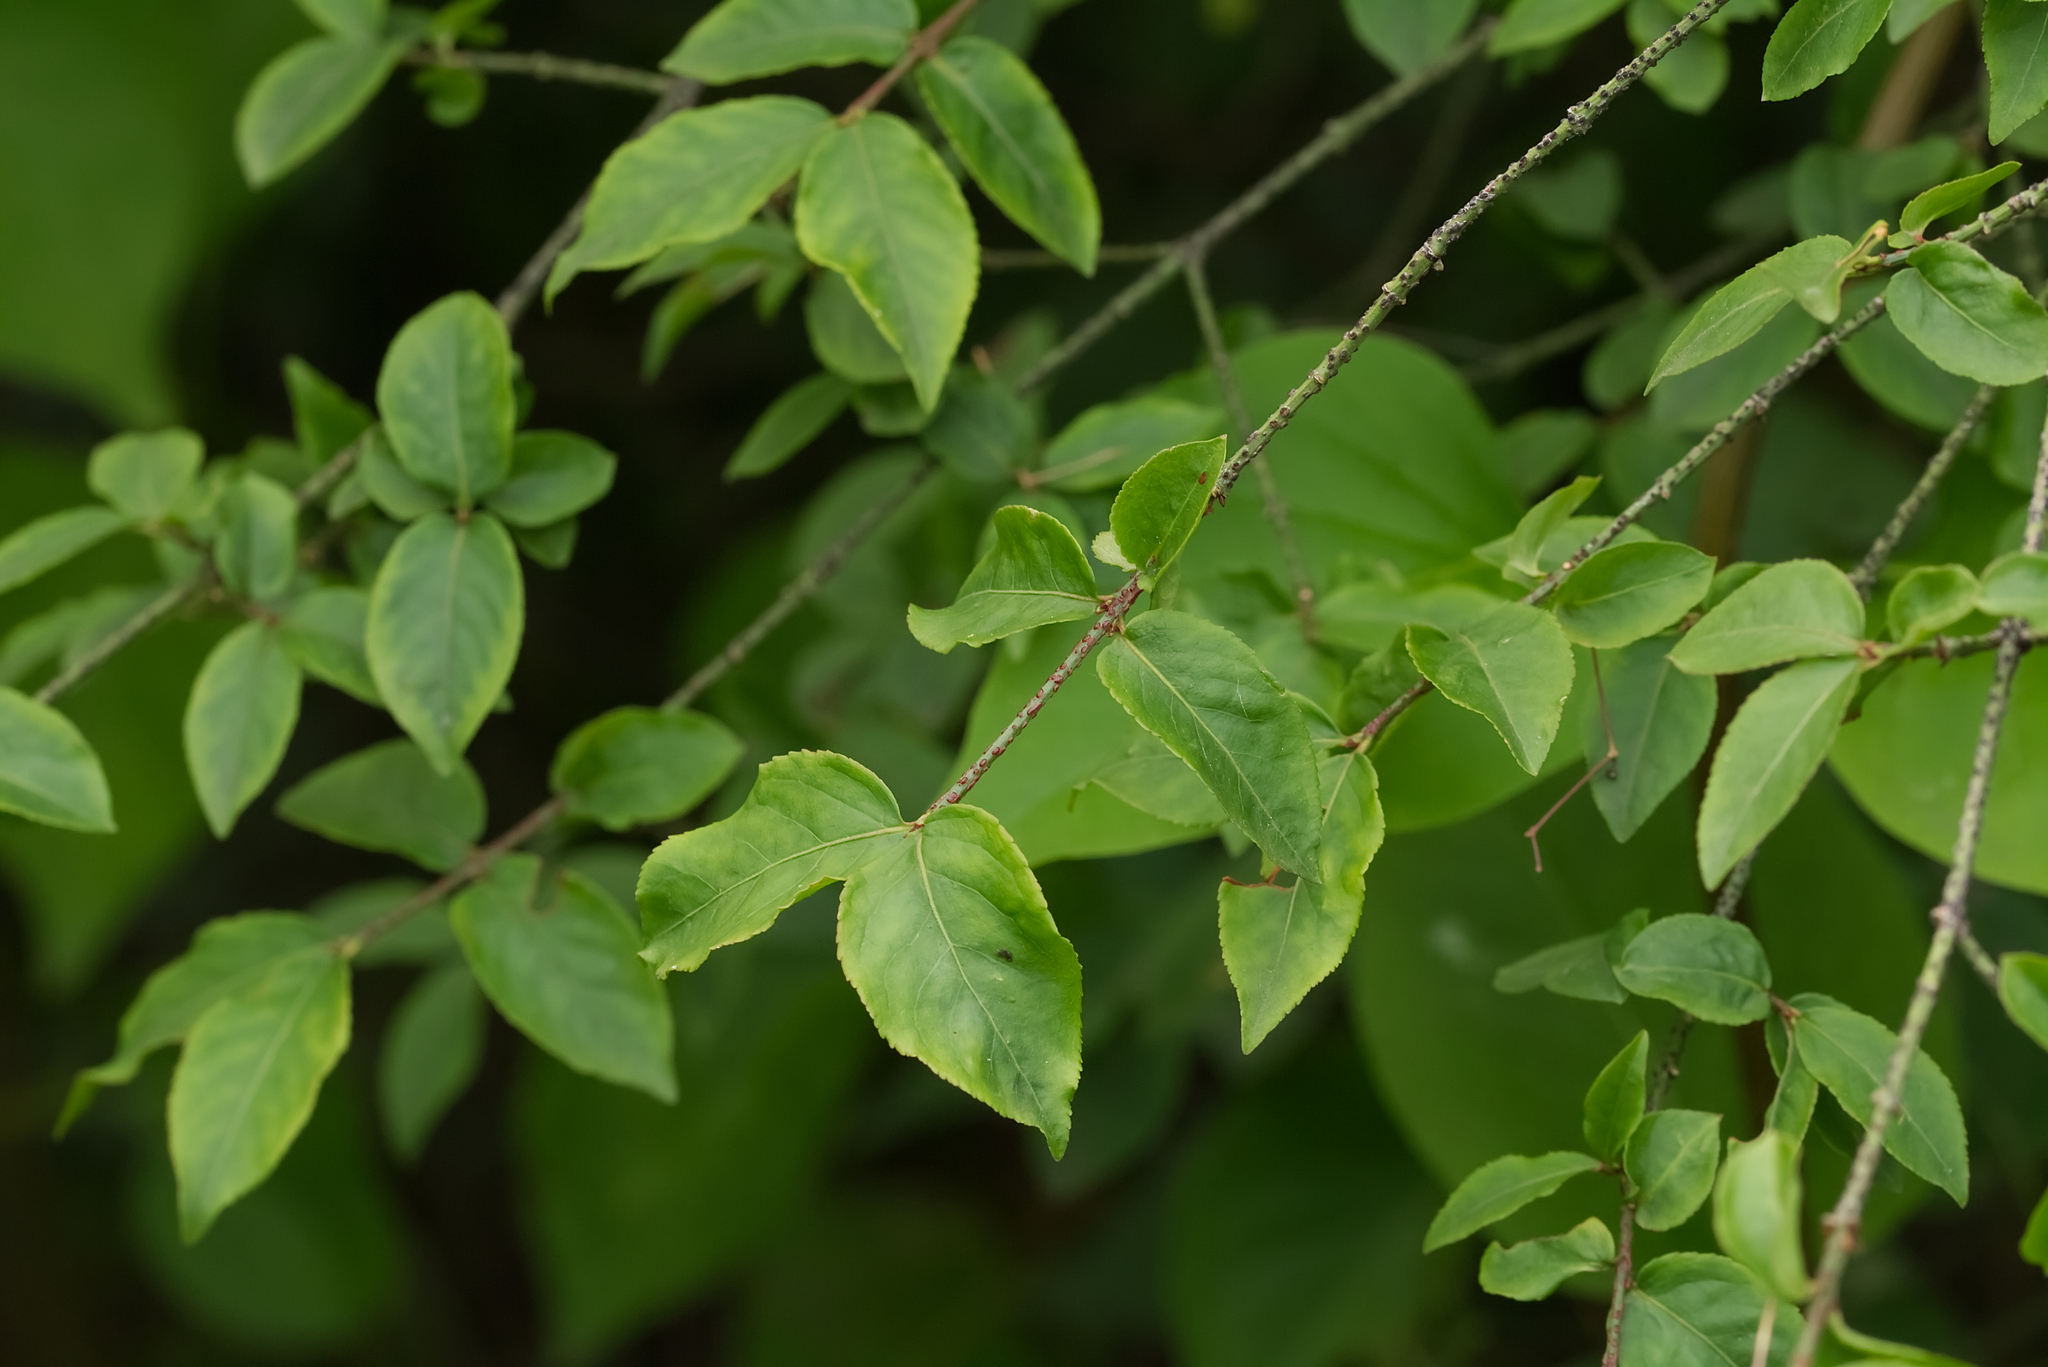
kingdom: Plantae
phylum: Tracheophyta
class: Magnoliopsida
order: Celastrales
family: Celastraceae
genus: Euonymus
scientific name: Euonymus verrucosus
